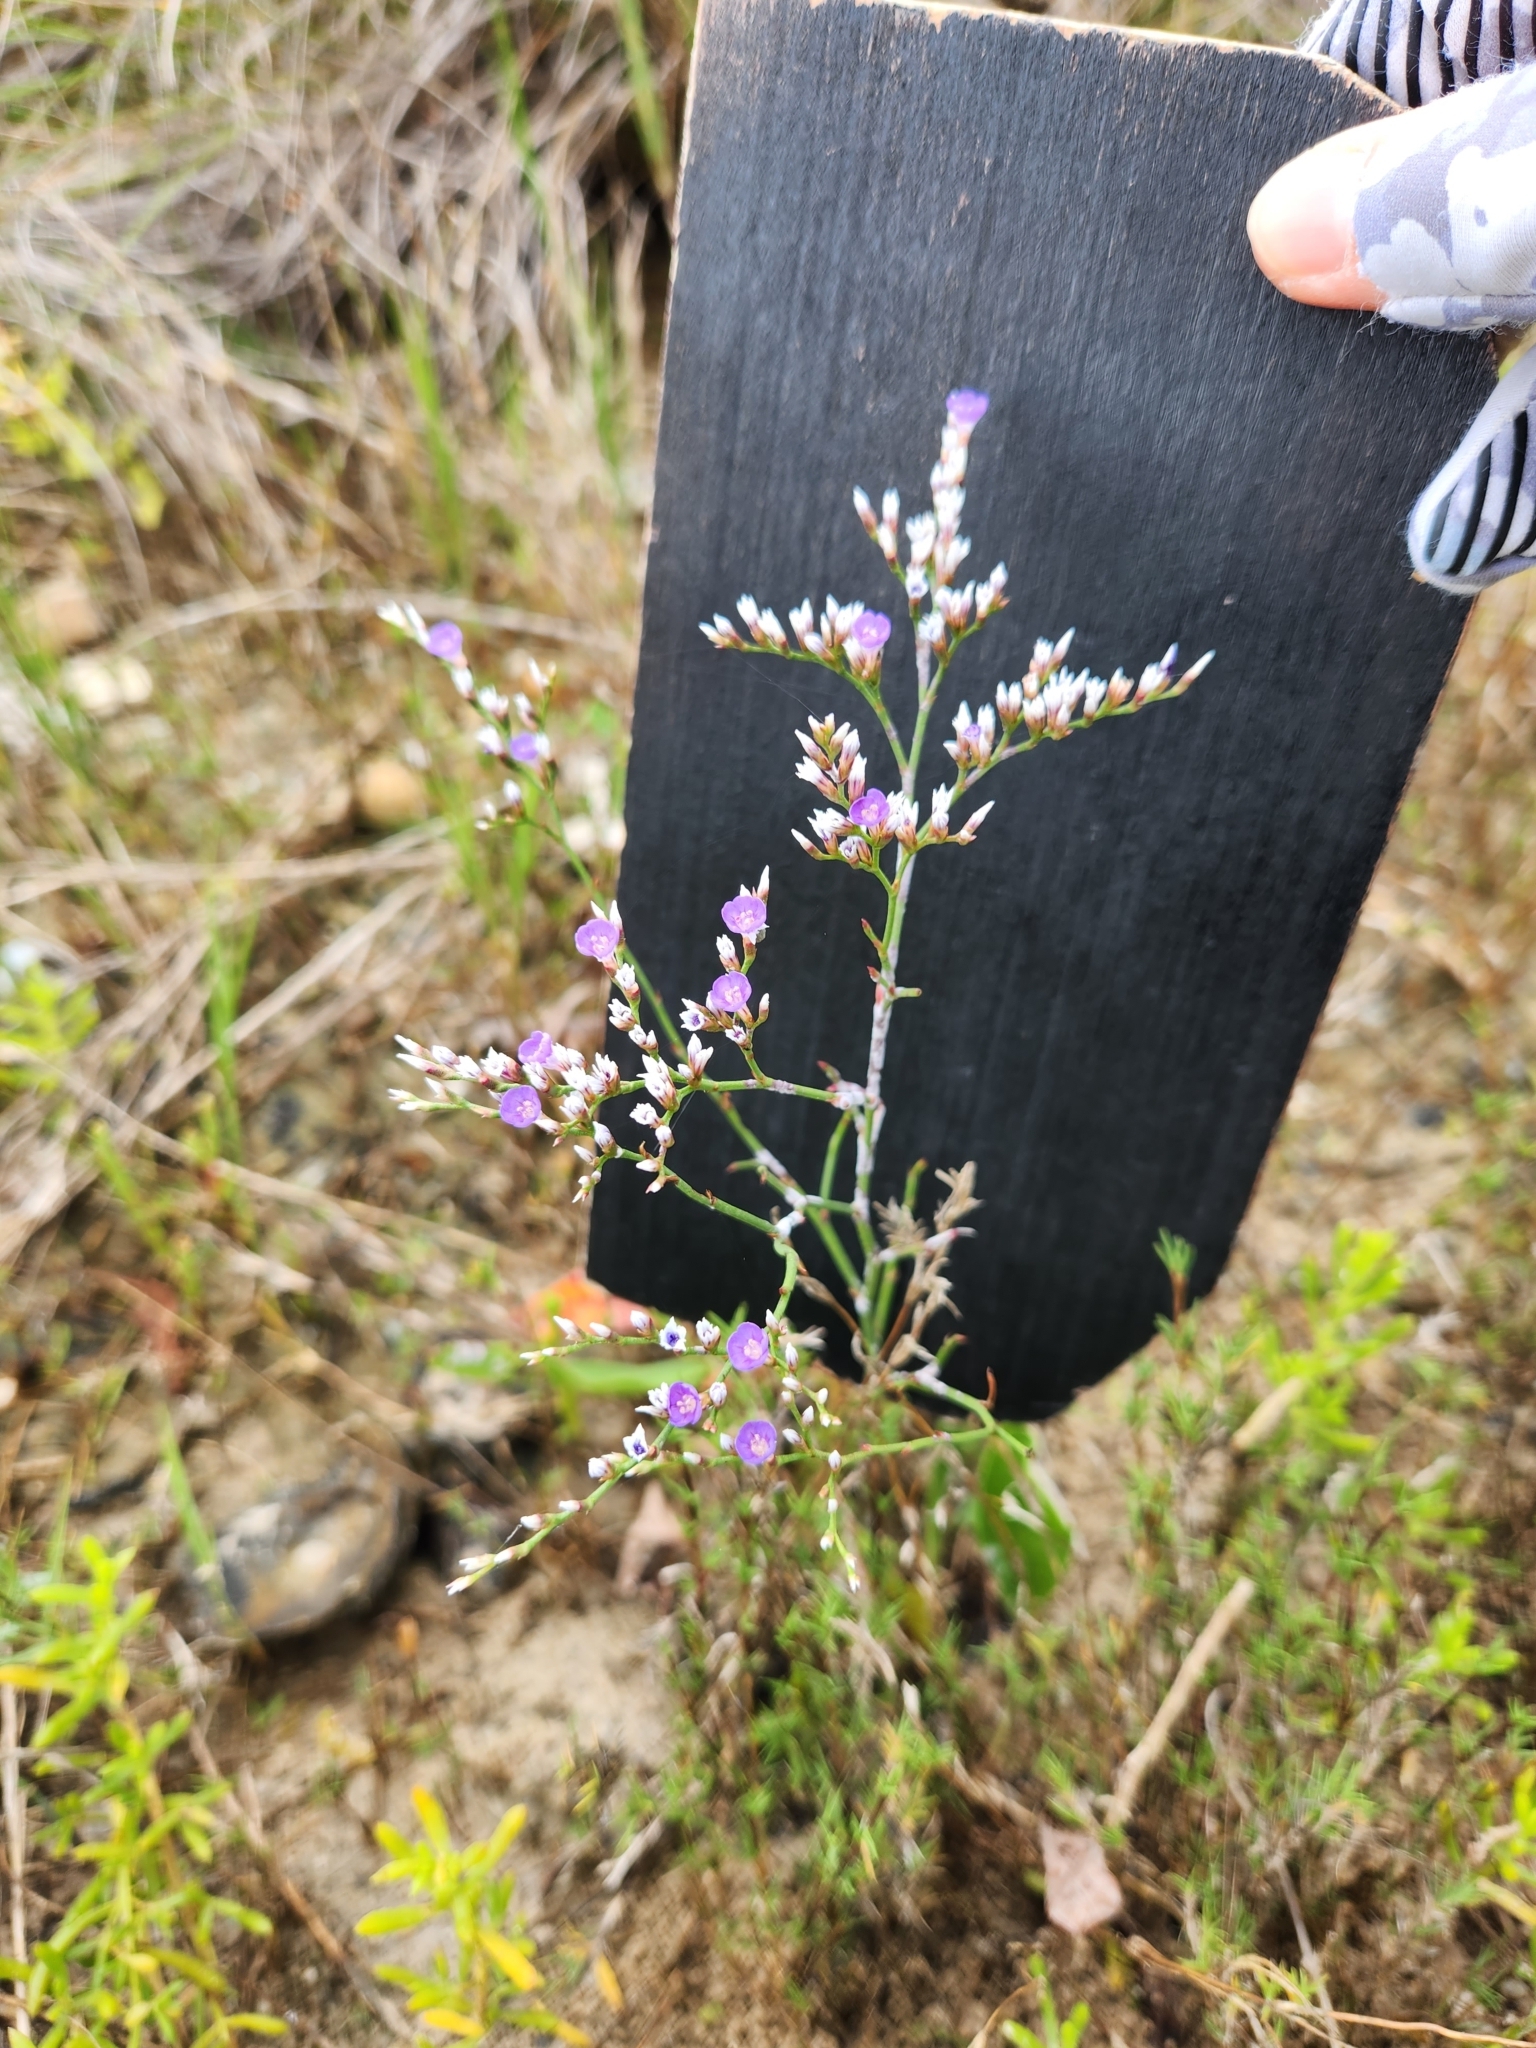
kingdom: Plantae
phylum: Tracheophyta
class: Magnoliopsida
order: Caryophyllales
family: Plumbaginaceae
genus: Limonium
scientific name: Limonium carolinianum
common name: Carolina sea lavender
